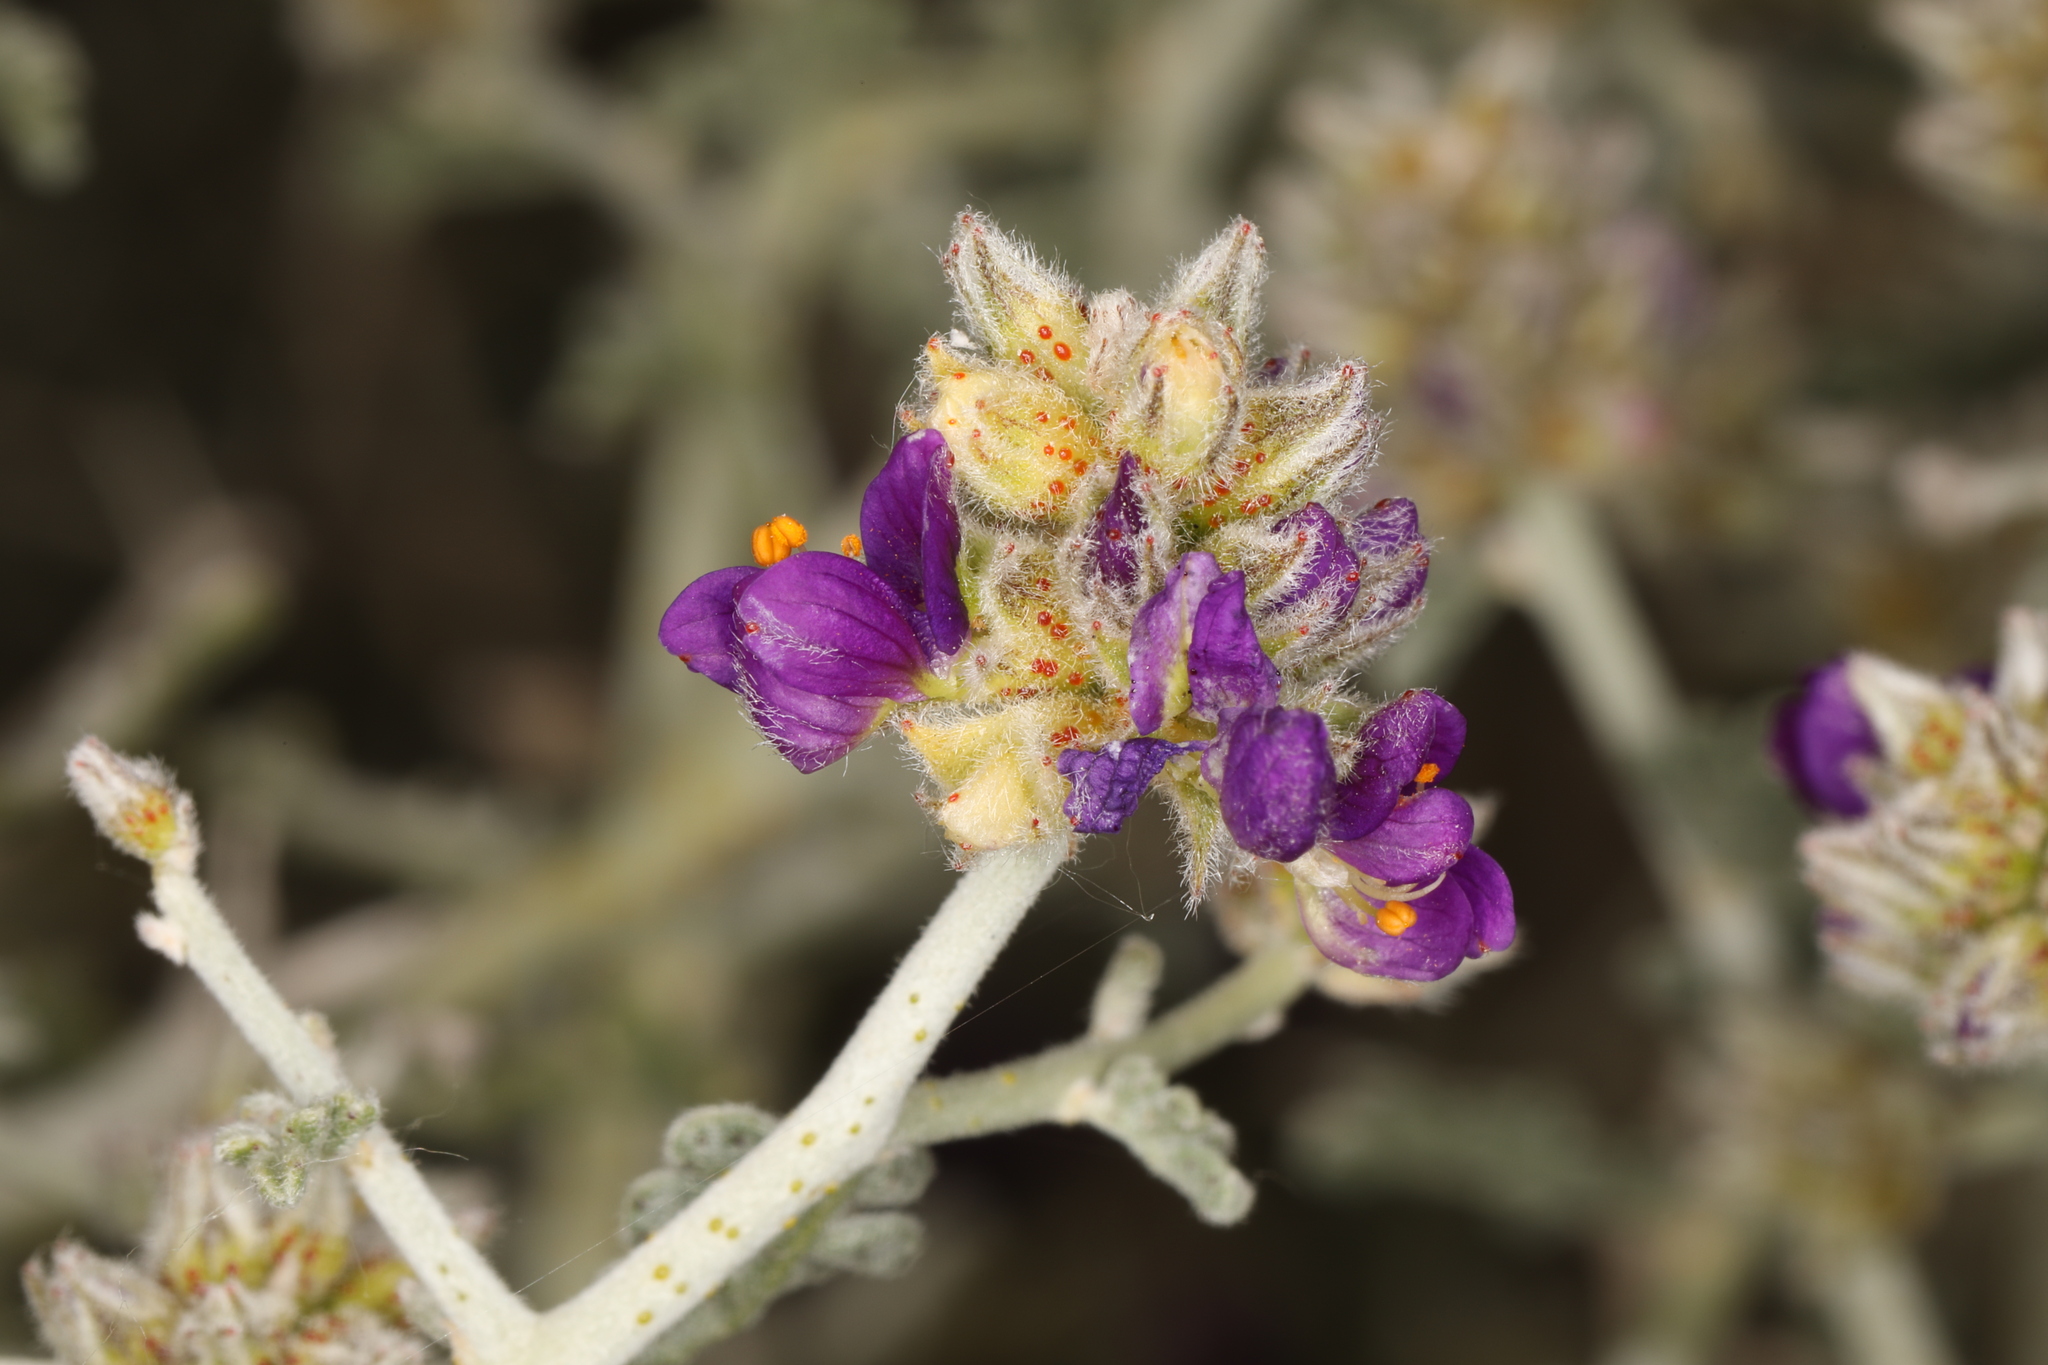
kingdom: Plantae
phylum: Tracheophyta
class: Magnoliopsida
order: Fabales
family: Fabaceae
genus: Psorothamnus
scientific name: Psorothamnus polydenius
